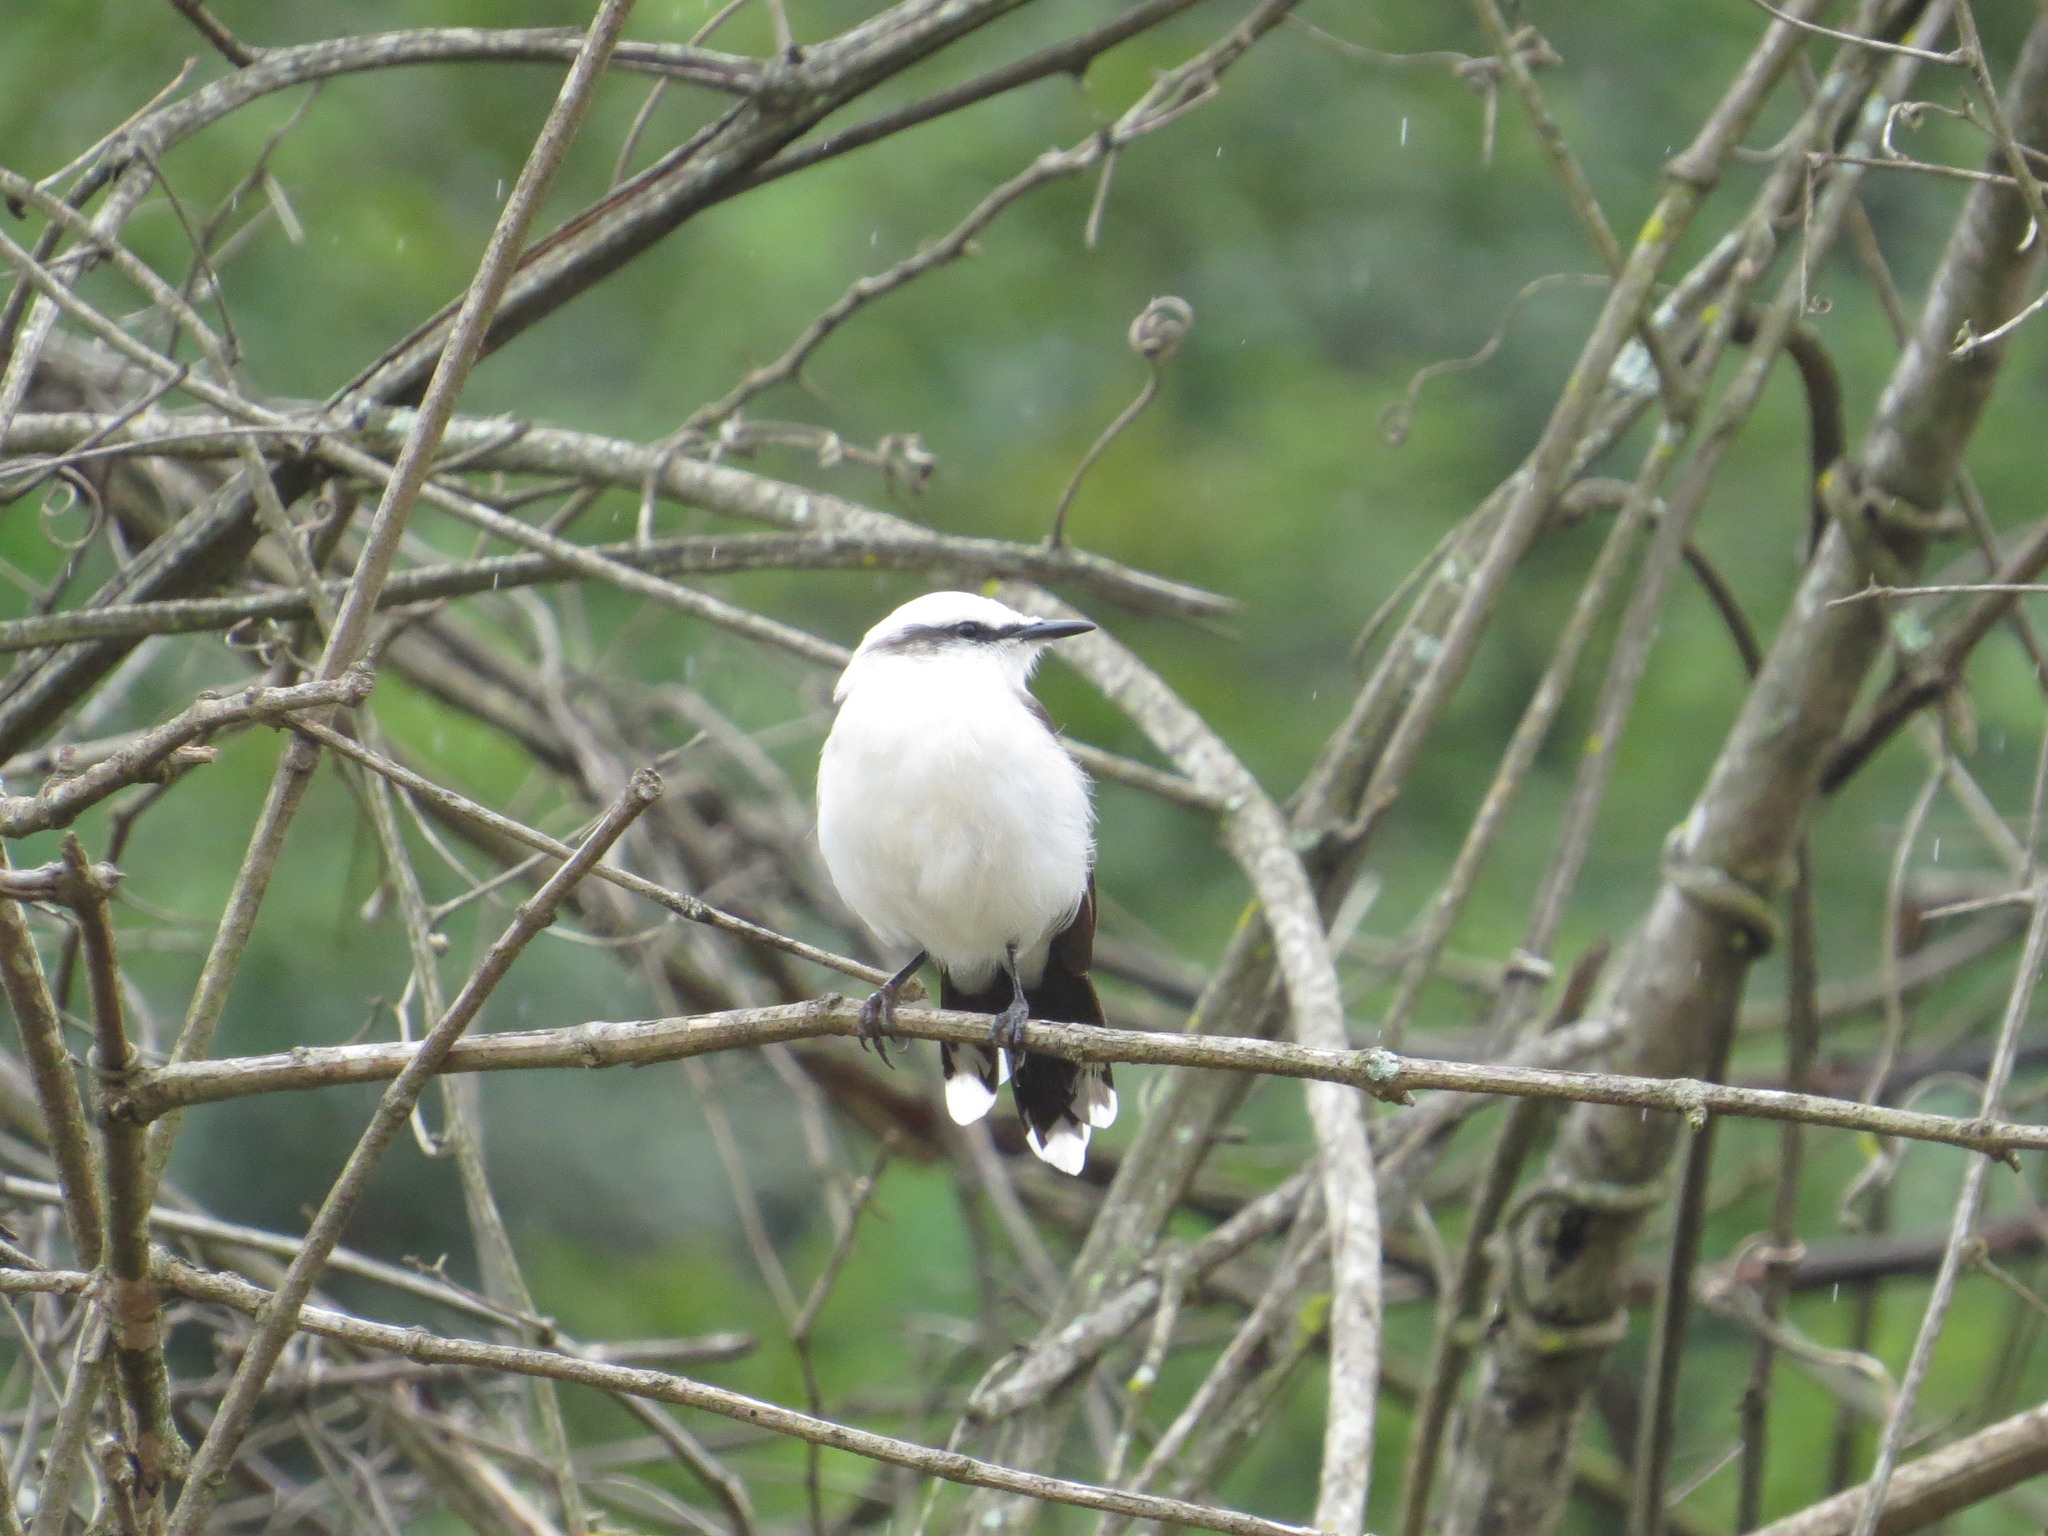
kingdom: Animalia
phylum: Chordata
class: Aves
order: Passeriformes
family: Tyrannidae
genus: Fluvicola
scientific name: Fluvicola nengeta
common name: Masked water tyrant
